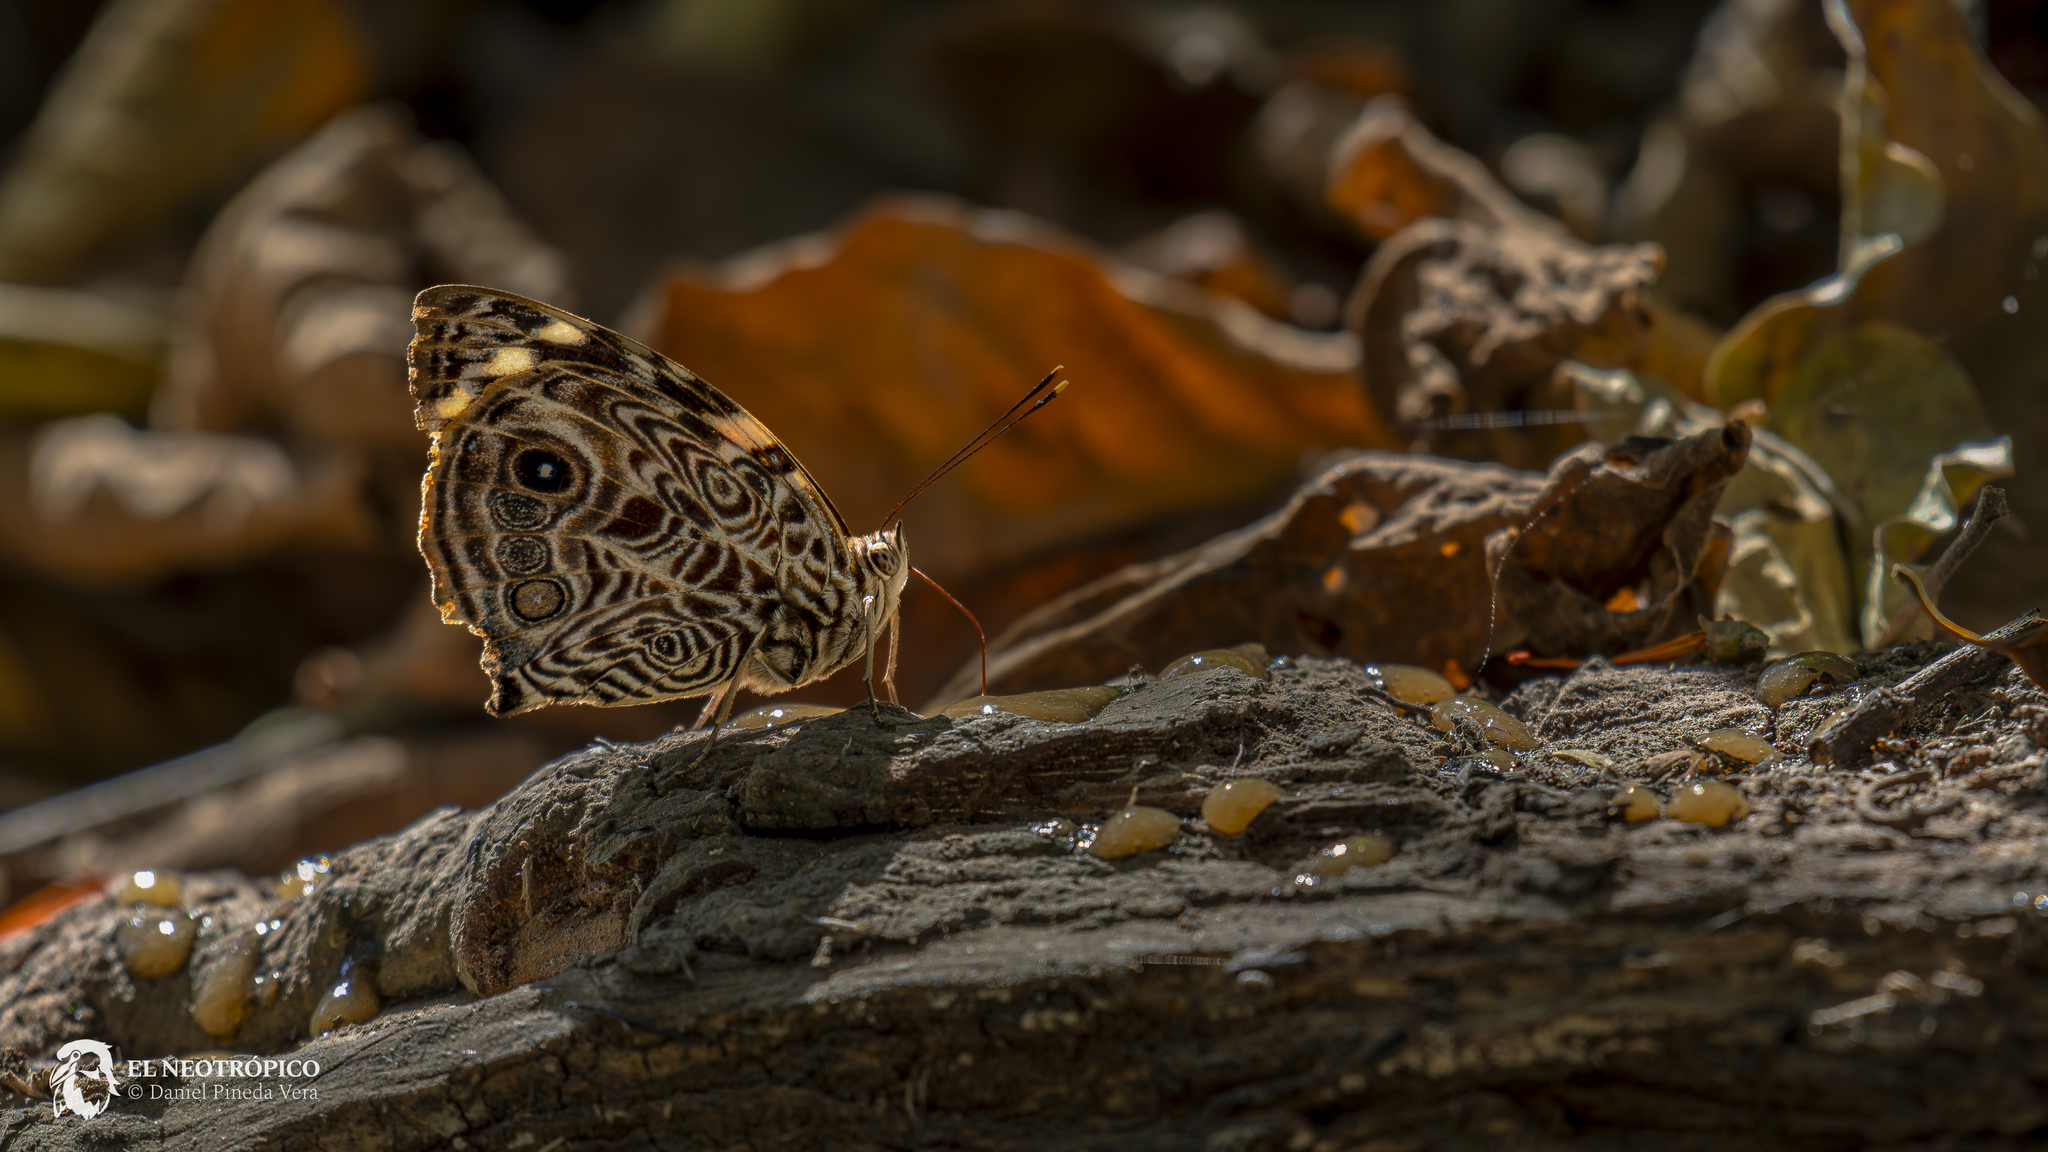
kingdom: Animalia
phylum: Arthropoda
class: Insecta
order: Lepidoptera
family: Nymphalidae
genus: Smyrna
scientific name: Smyrna blomfildia
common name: Blomfild's beauty
